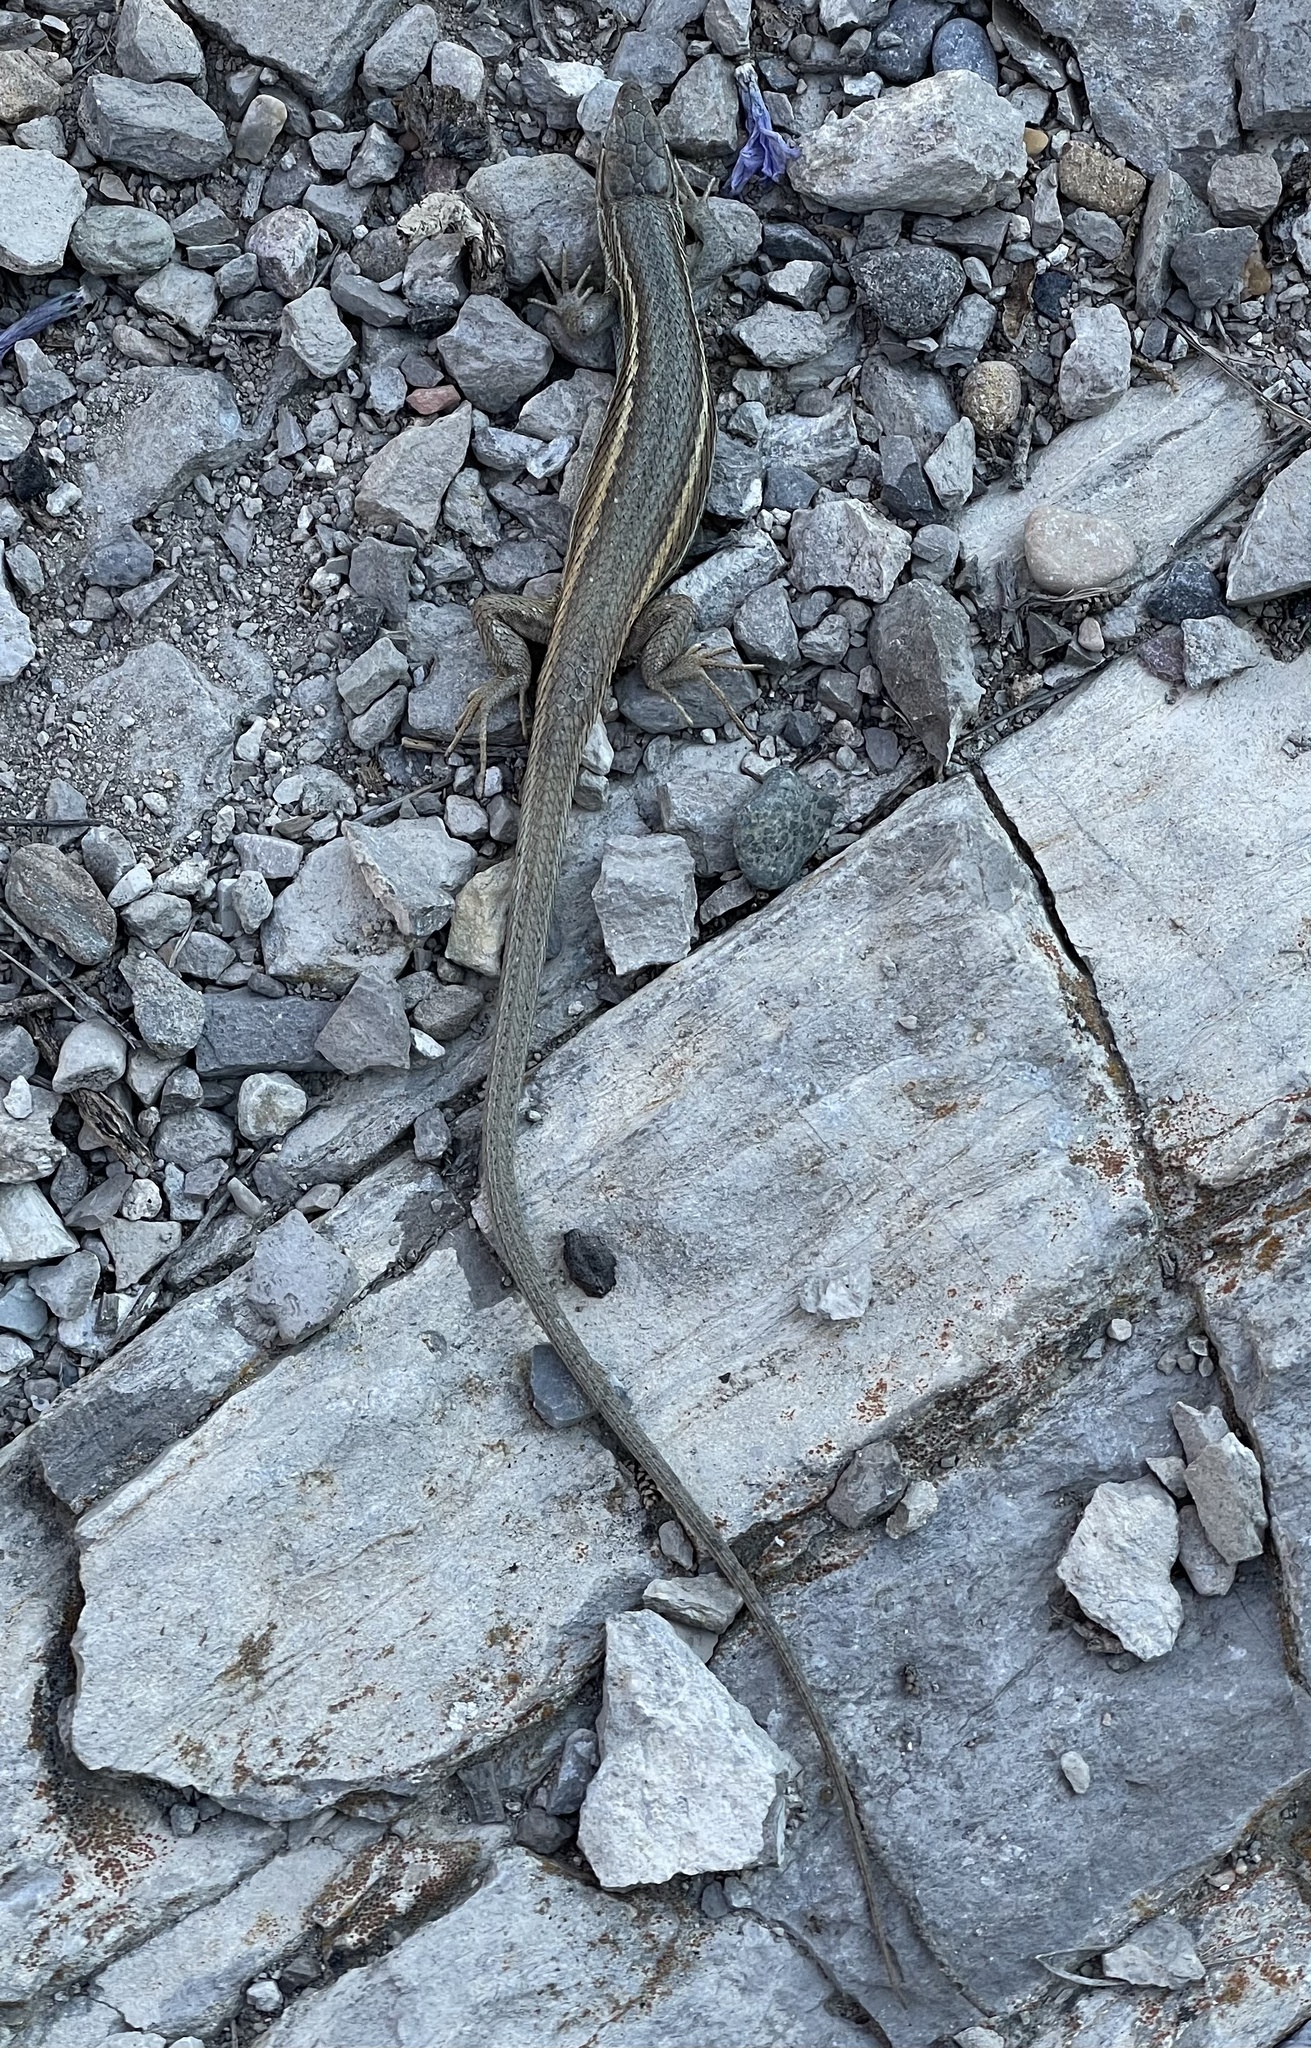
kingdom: Animalia
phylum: Chordata
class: Squamata
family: Lacertidae
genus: Psammodromus
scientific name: Psammodromus algirus
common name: Algerian psammodromus
